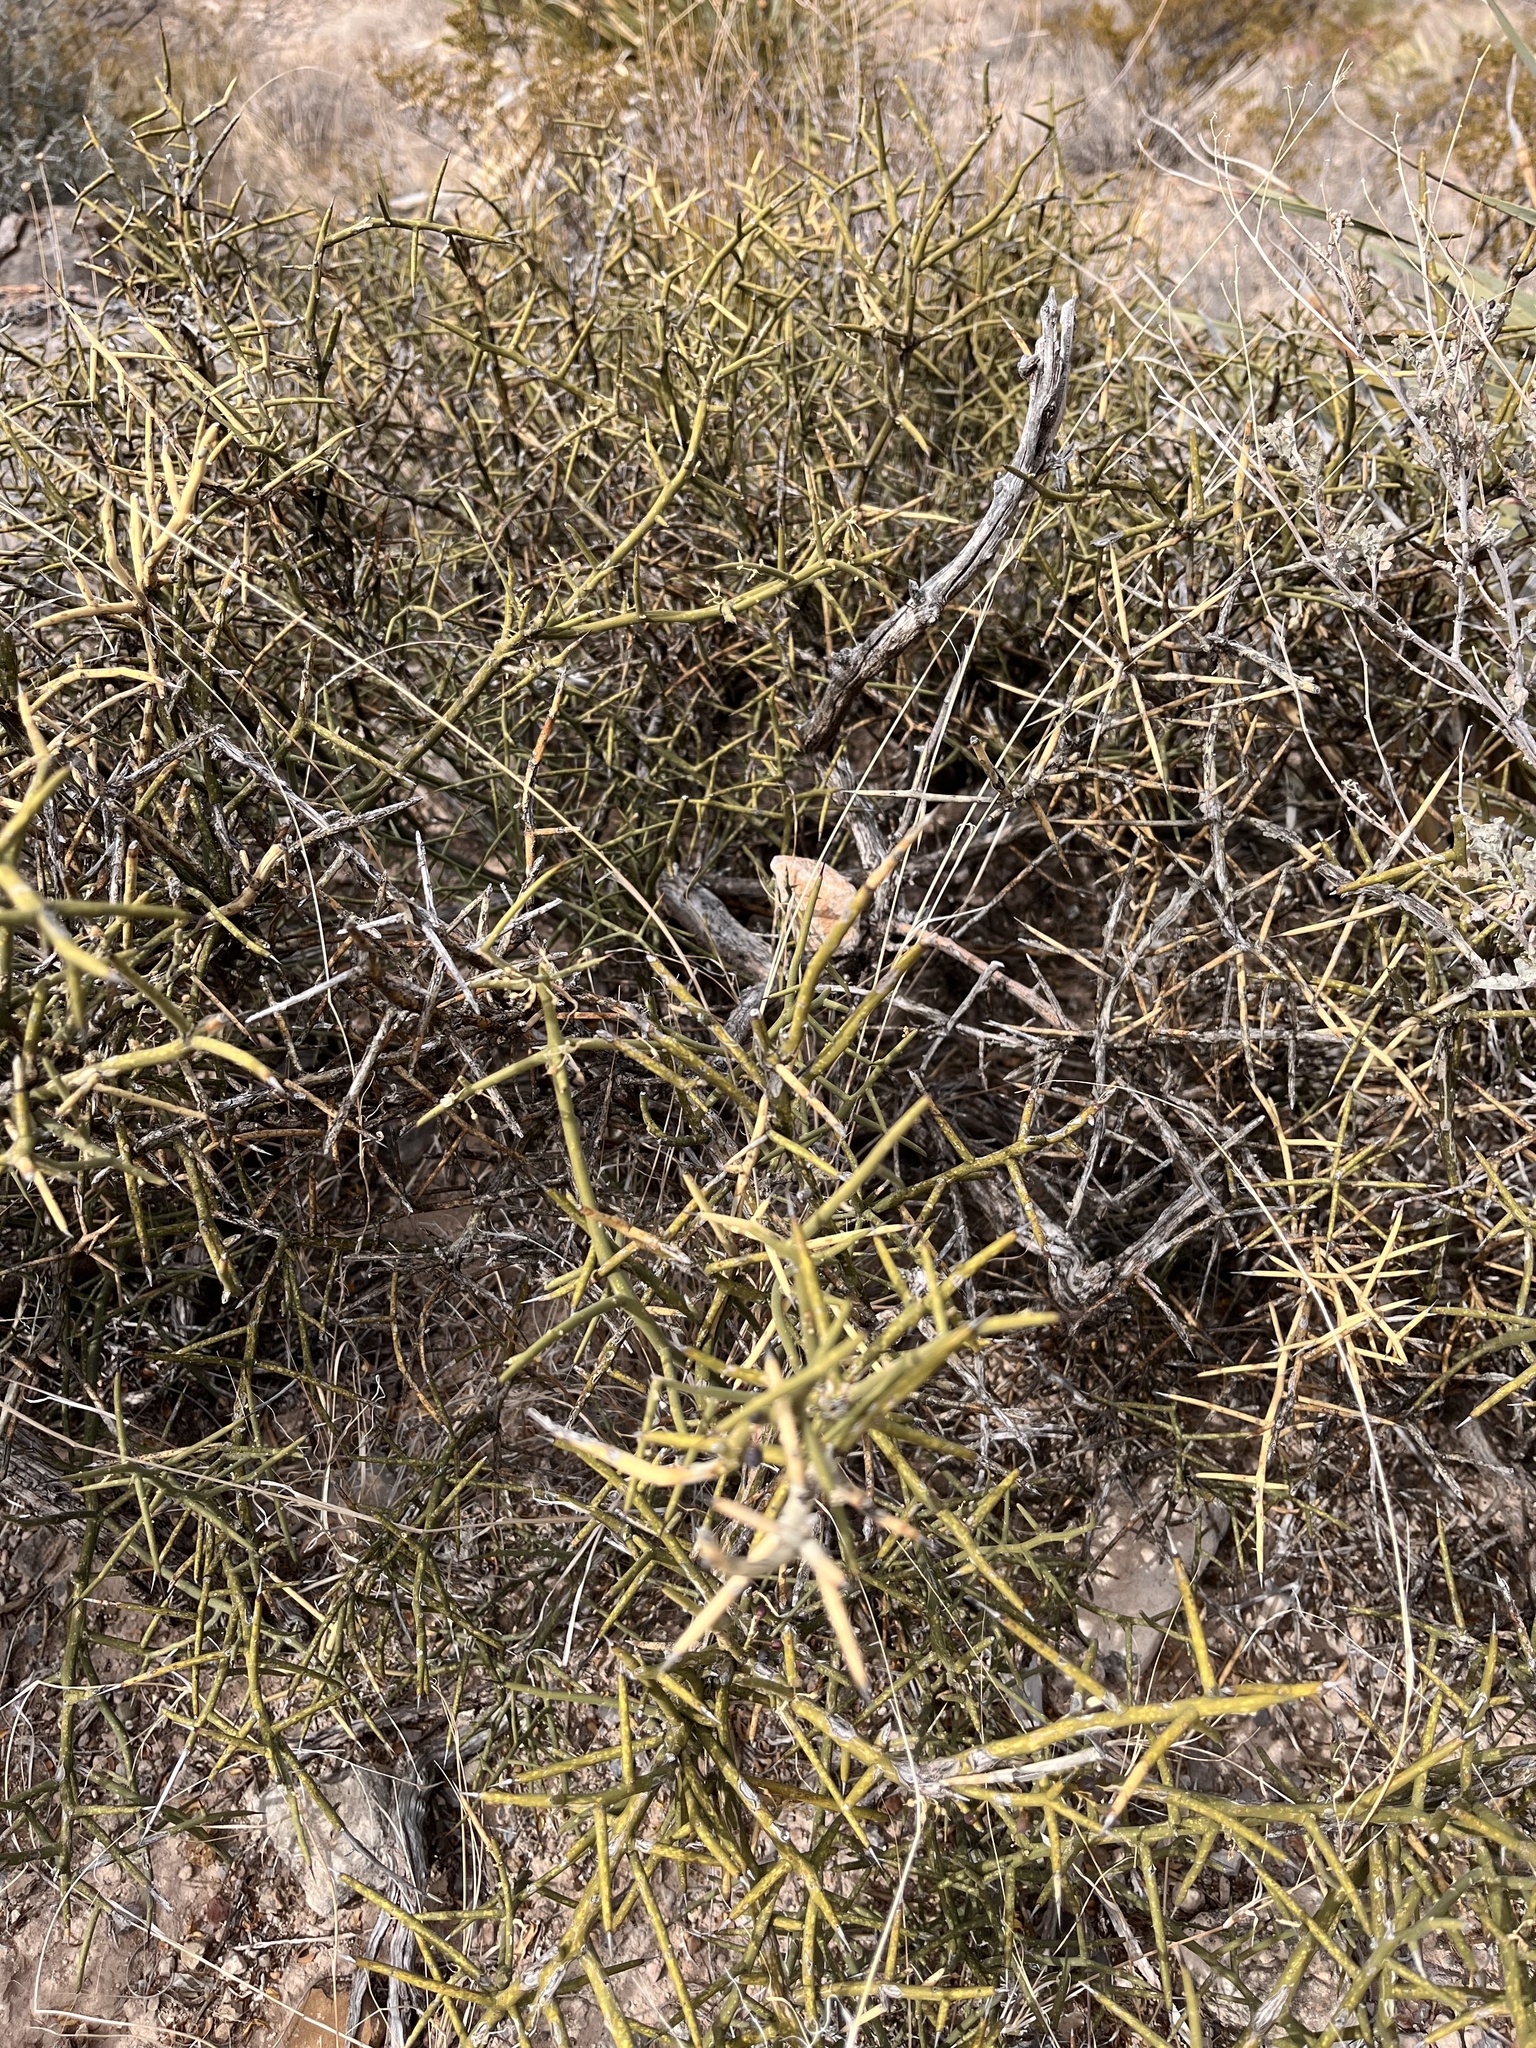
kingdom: Plantae
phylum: Tracheophyta
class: Magnoliopsida
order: Brassicales
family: Koeberliniaceae
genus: Koeberlinia
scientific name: Koeberlinia spinosa
